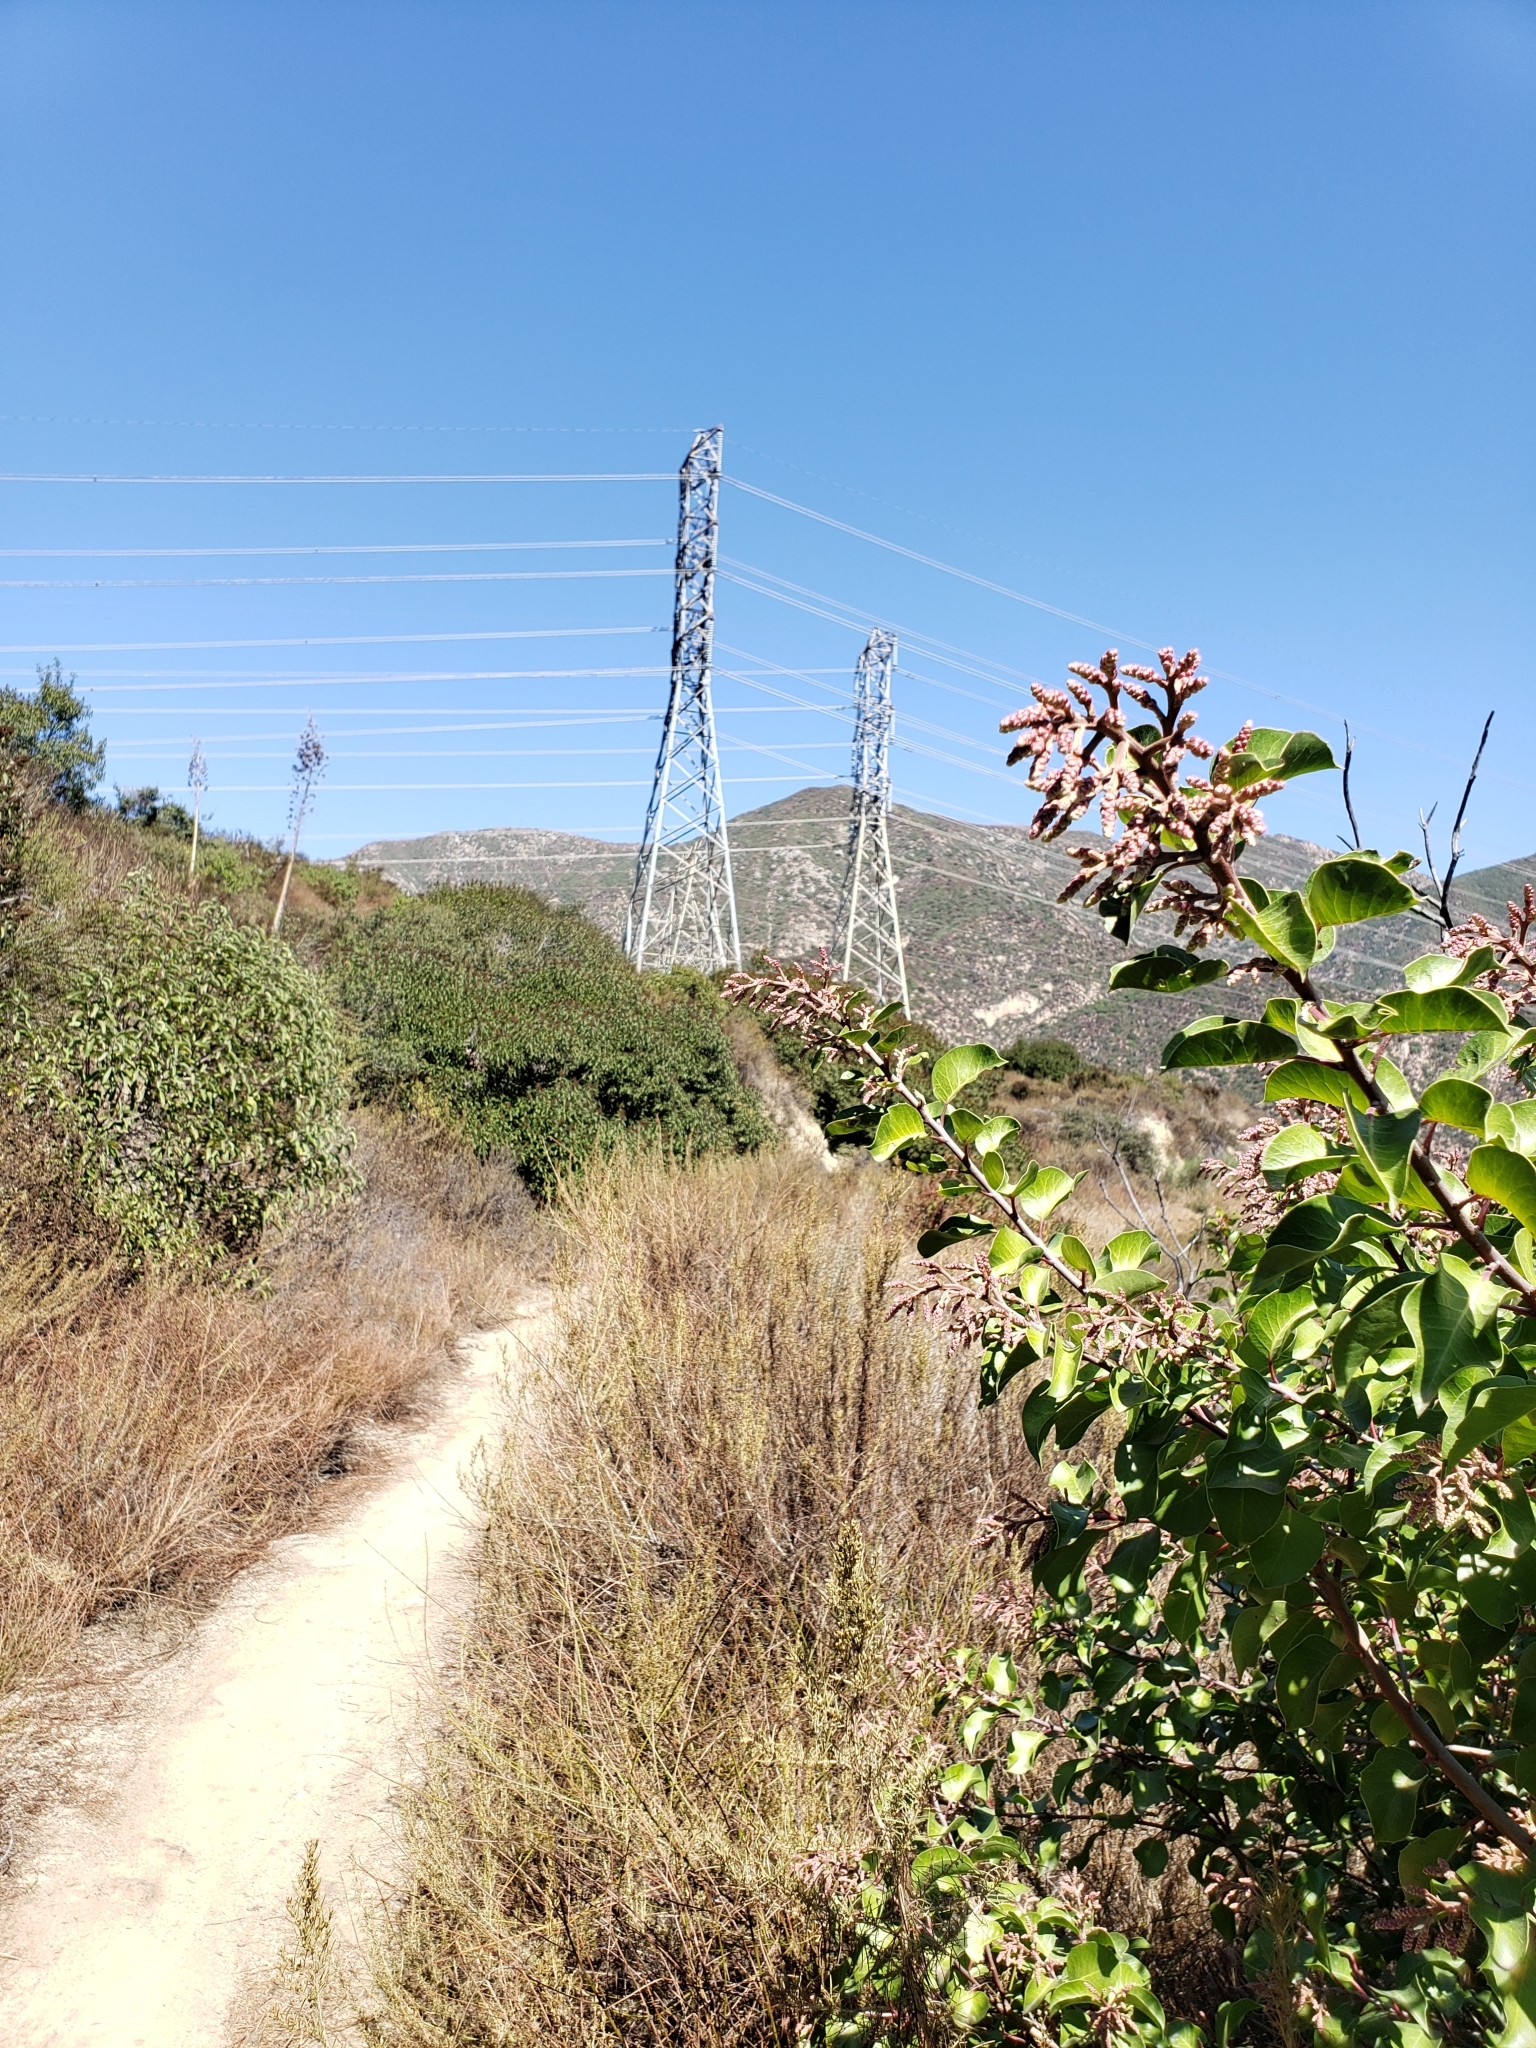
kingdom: Plantae
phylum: Tracheophyta
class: Magnoliopsida
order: Sapindales
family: Anacardiaceae
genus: Rhus
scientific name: Rhus ovata
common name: Sugar sumac
